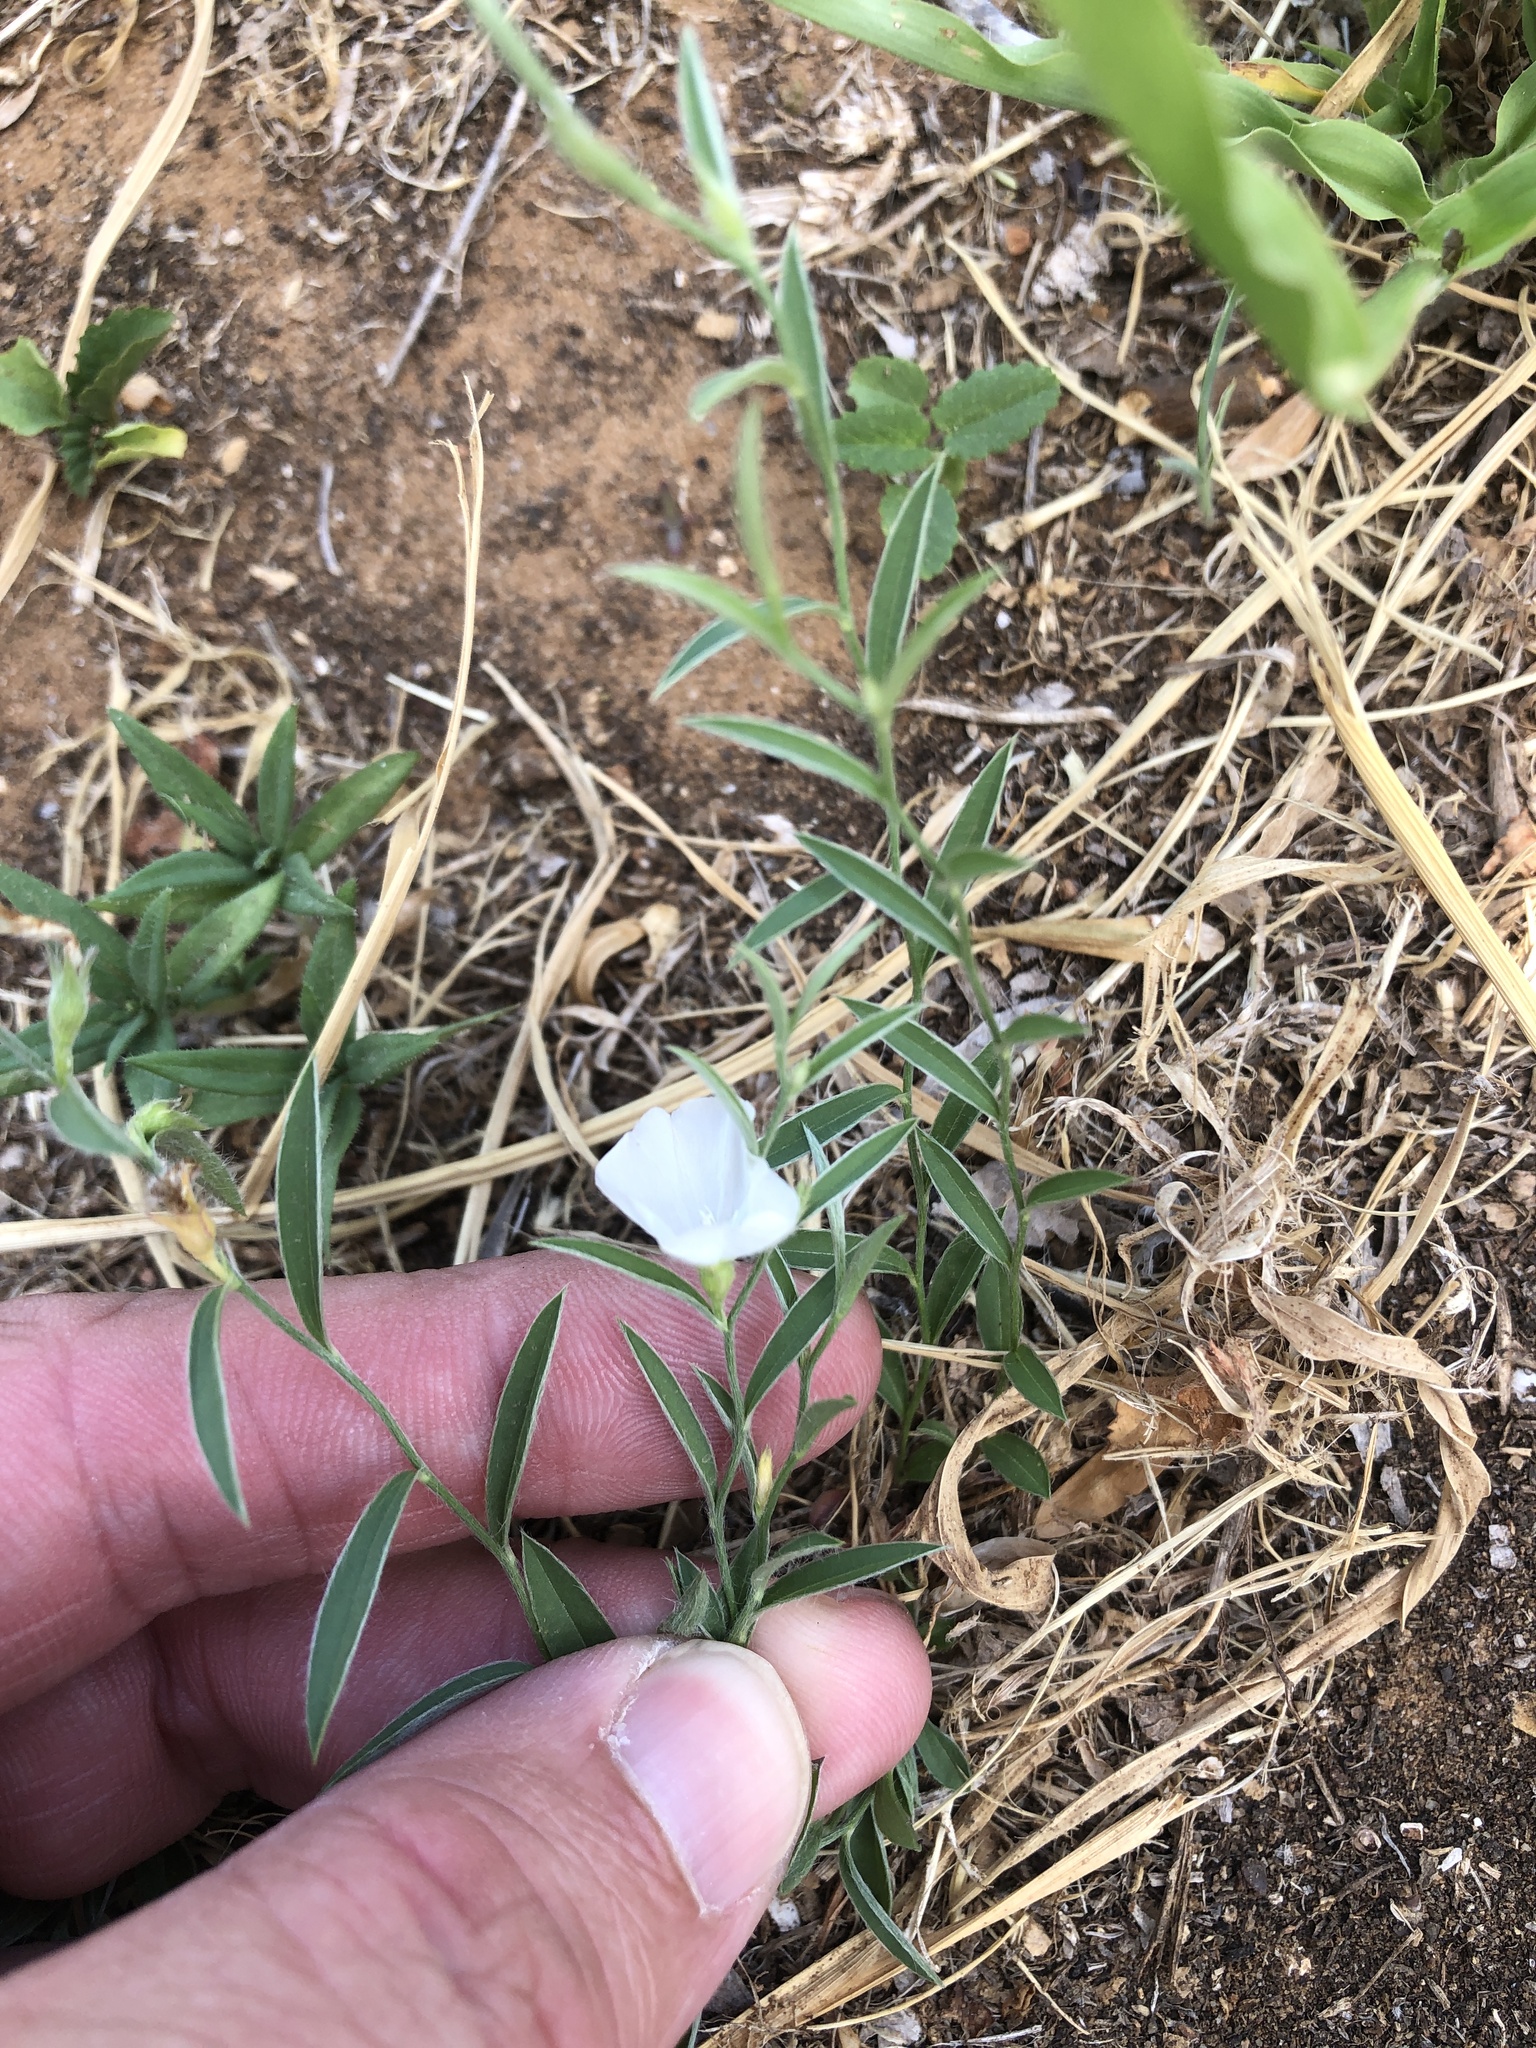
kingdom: Plantae
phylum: Tracheophyta
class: Magnoliopsida
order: Solanales
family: Convolvulaceae
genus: Evolvulus
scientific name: Evolvulus sericeus
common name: Blue dots
